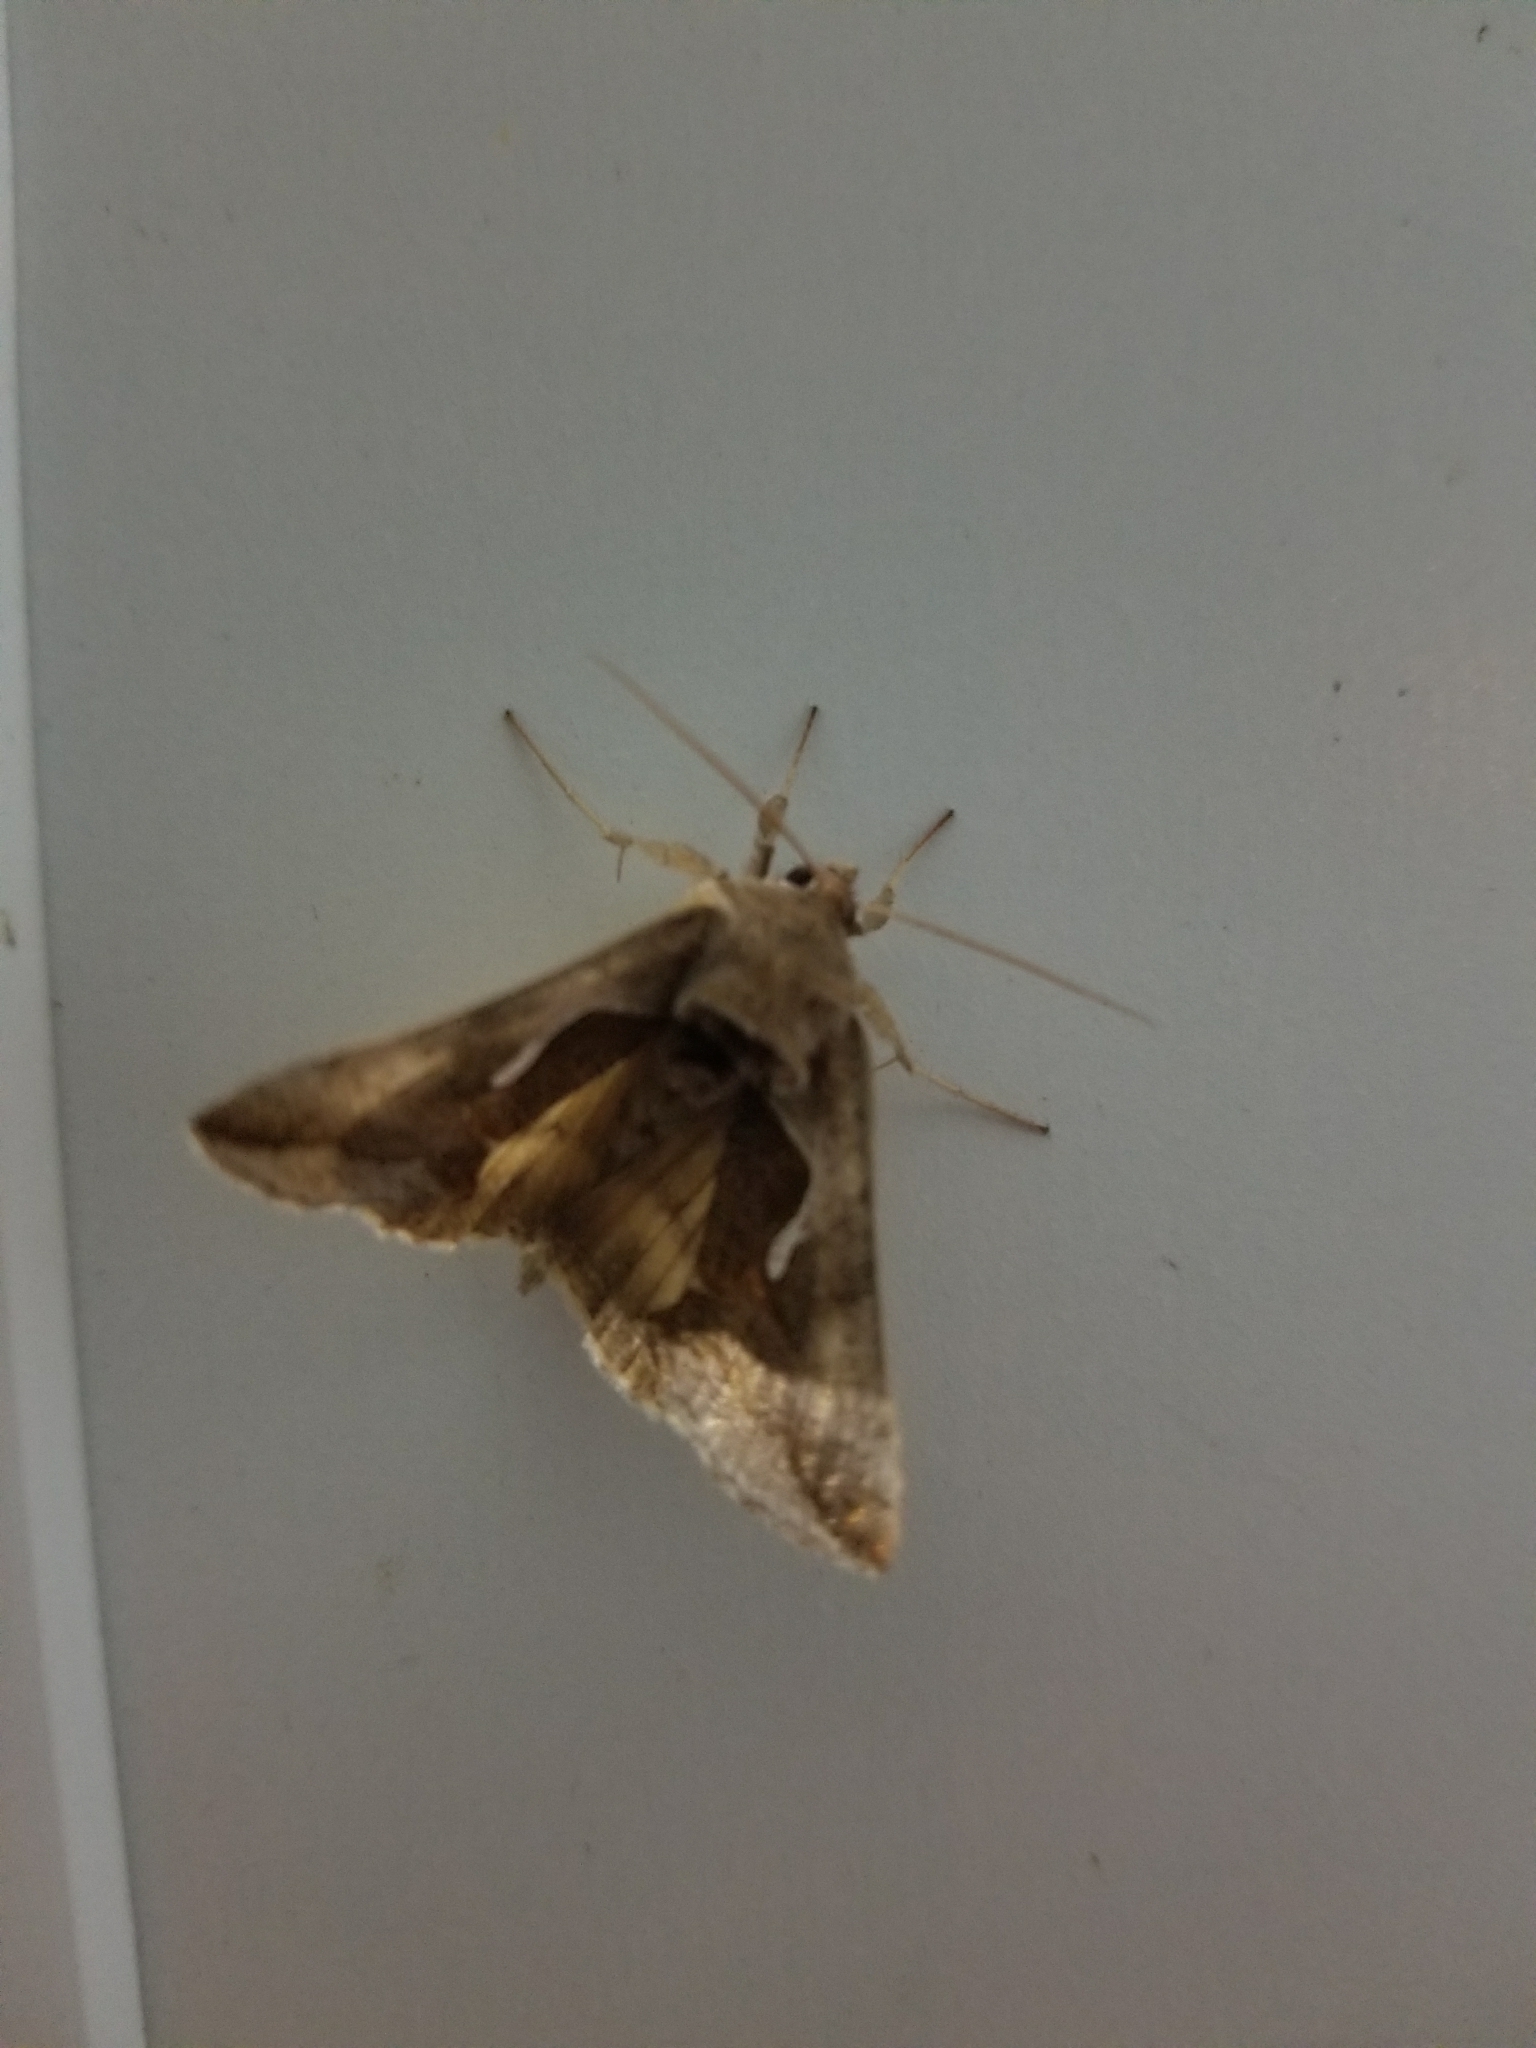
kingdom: Animalia
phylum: Arthropoda
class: Insecta
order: Lepidoptera
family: Noctuidae
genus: Anagrapha
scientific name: Anagrapha falcifera
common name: Celery looper
